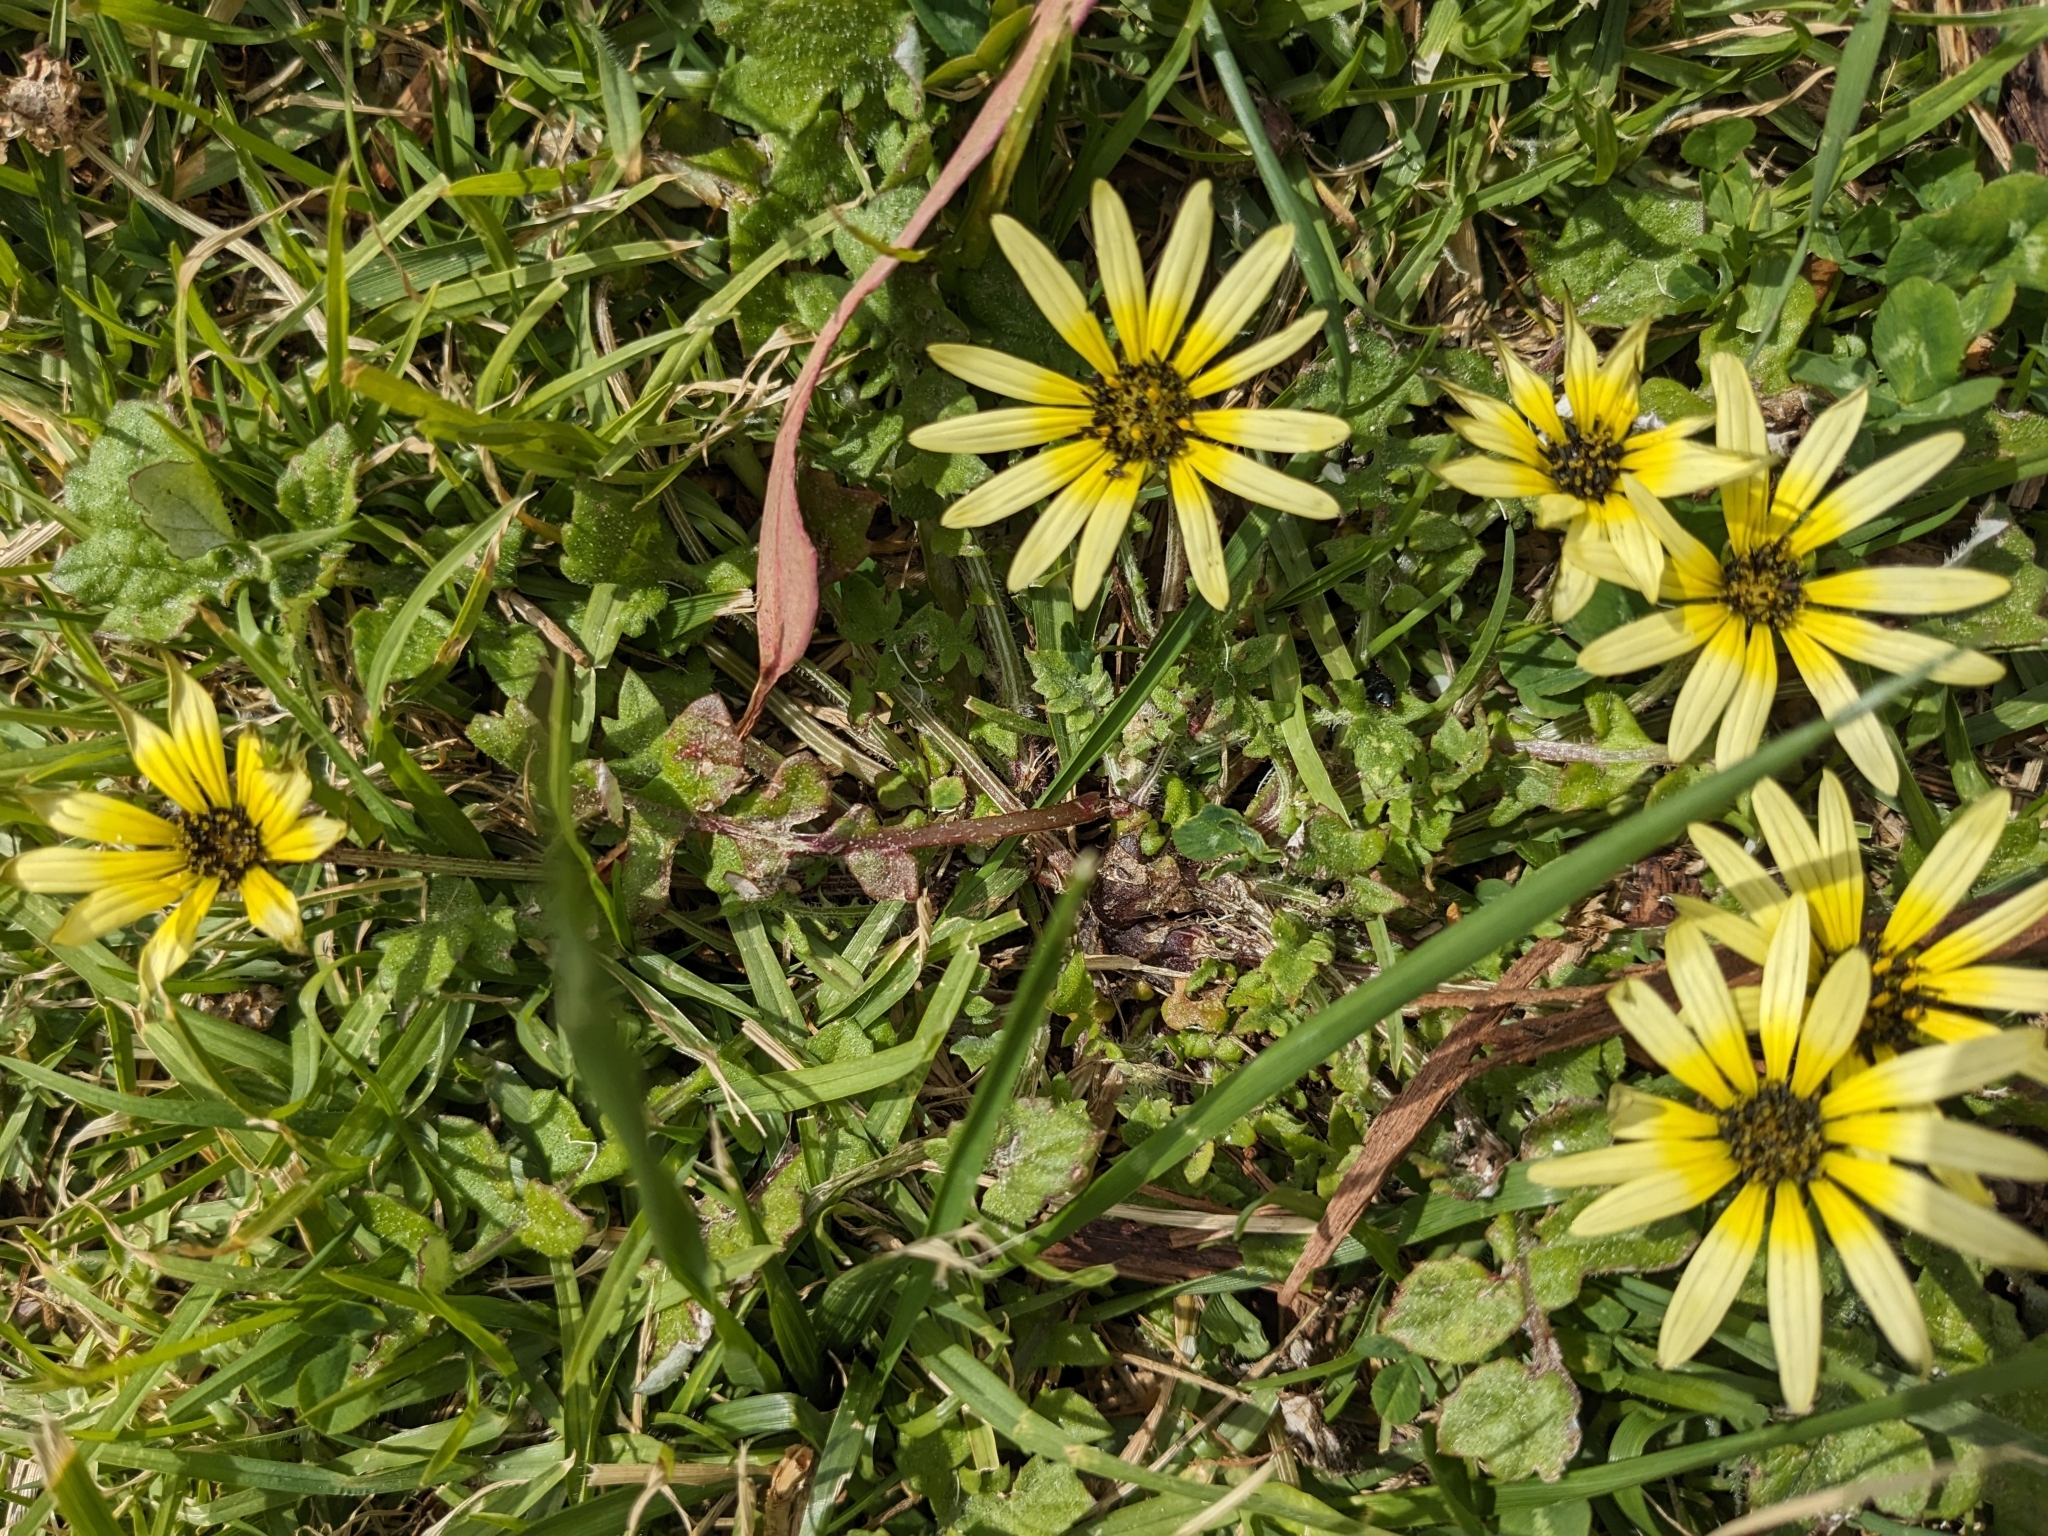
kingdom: Plantae
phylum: Tracheophyta
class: Magnoliopsida
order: Asterales
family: Asteraceae
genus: Arctotheca
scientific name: Arctotheca calendula
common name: Capeweed
